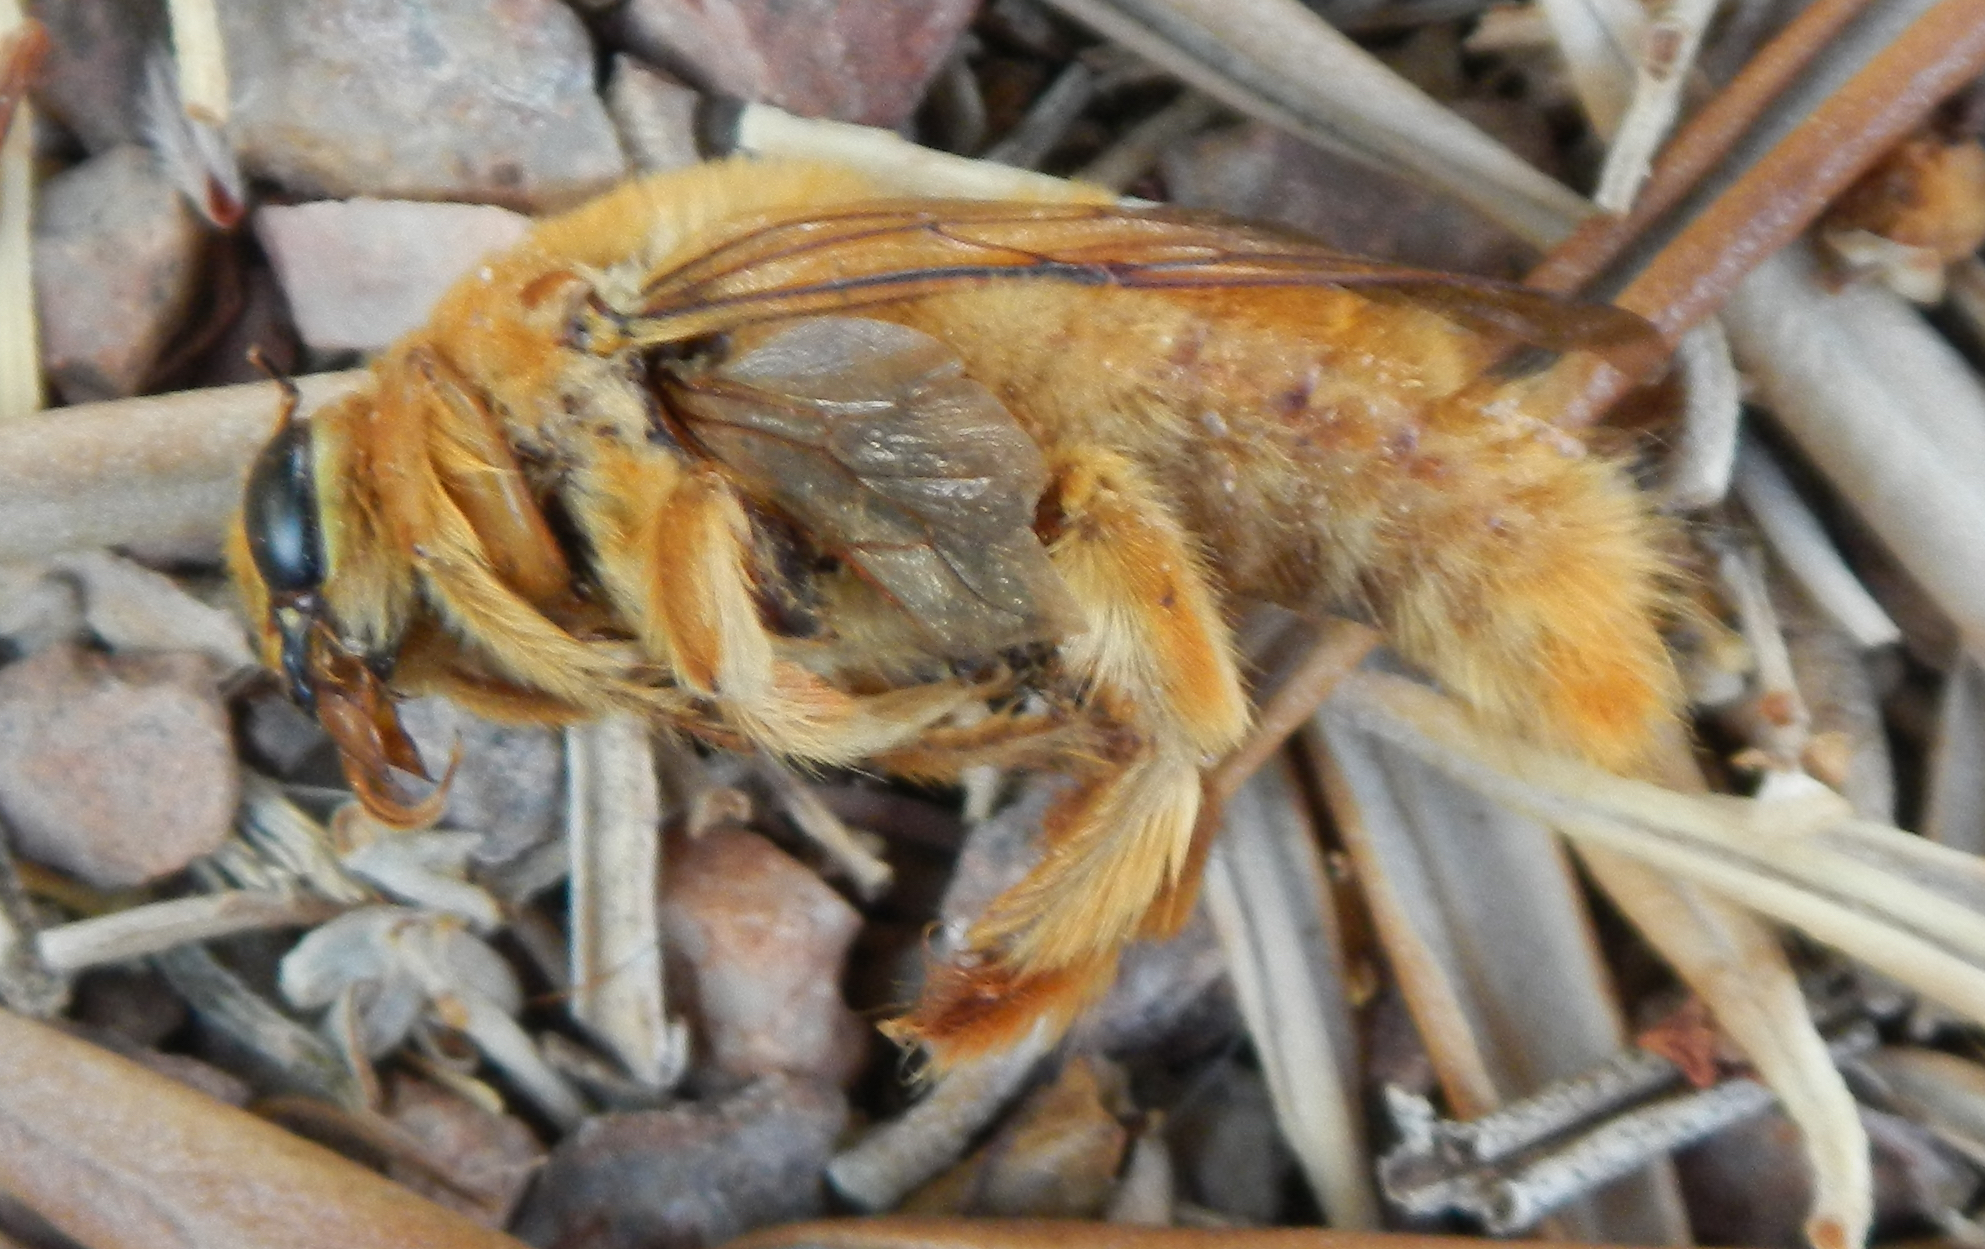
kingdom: Animalia
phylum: Arthropoda
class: Insecta
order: Hymenoptera
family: Apidae
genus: Xylocopa
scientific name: Xylocopa sonorina
